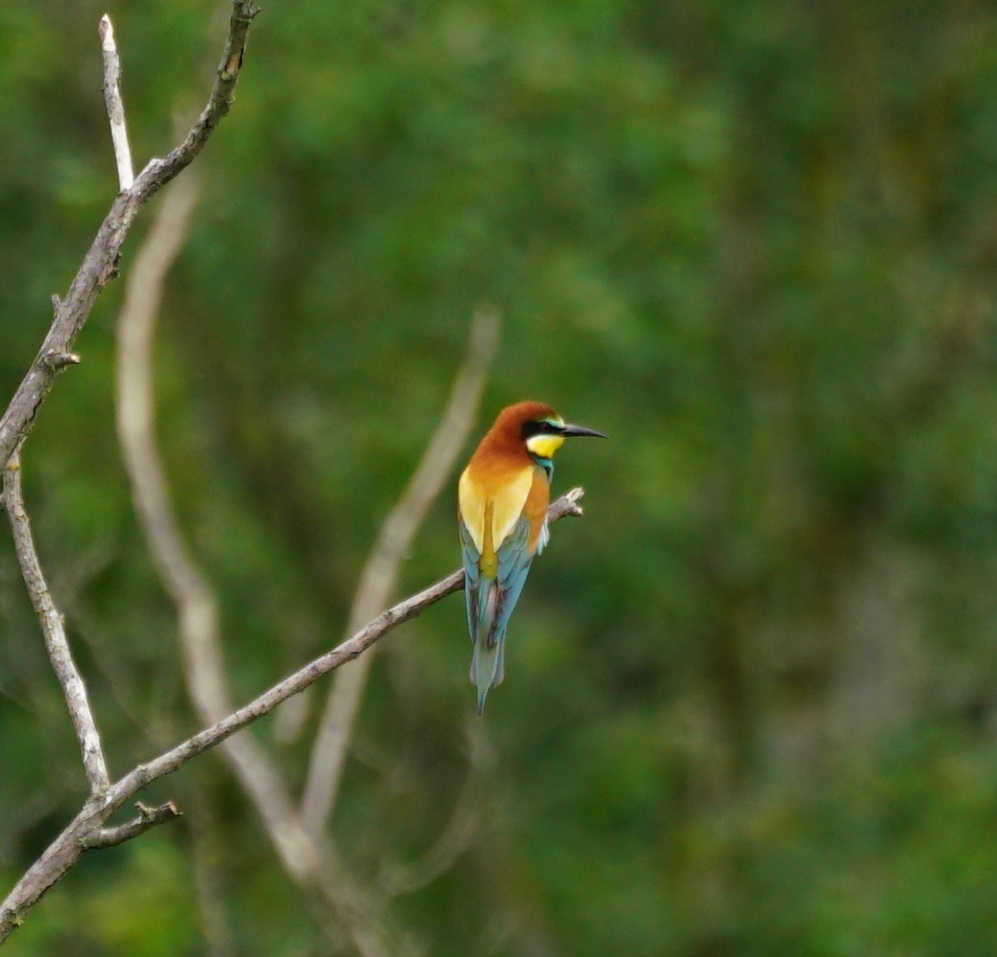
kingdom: Animalia
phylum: Chordata
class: Aves
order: Coraciiformes
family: Meropidae
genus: Merops
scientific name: Merops apiaster
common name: European bee-eater
